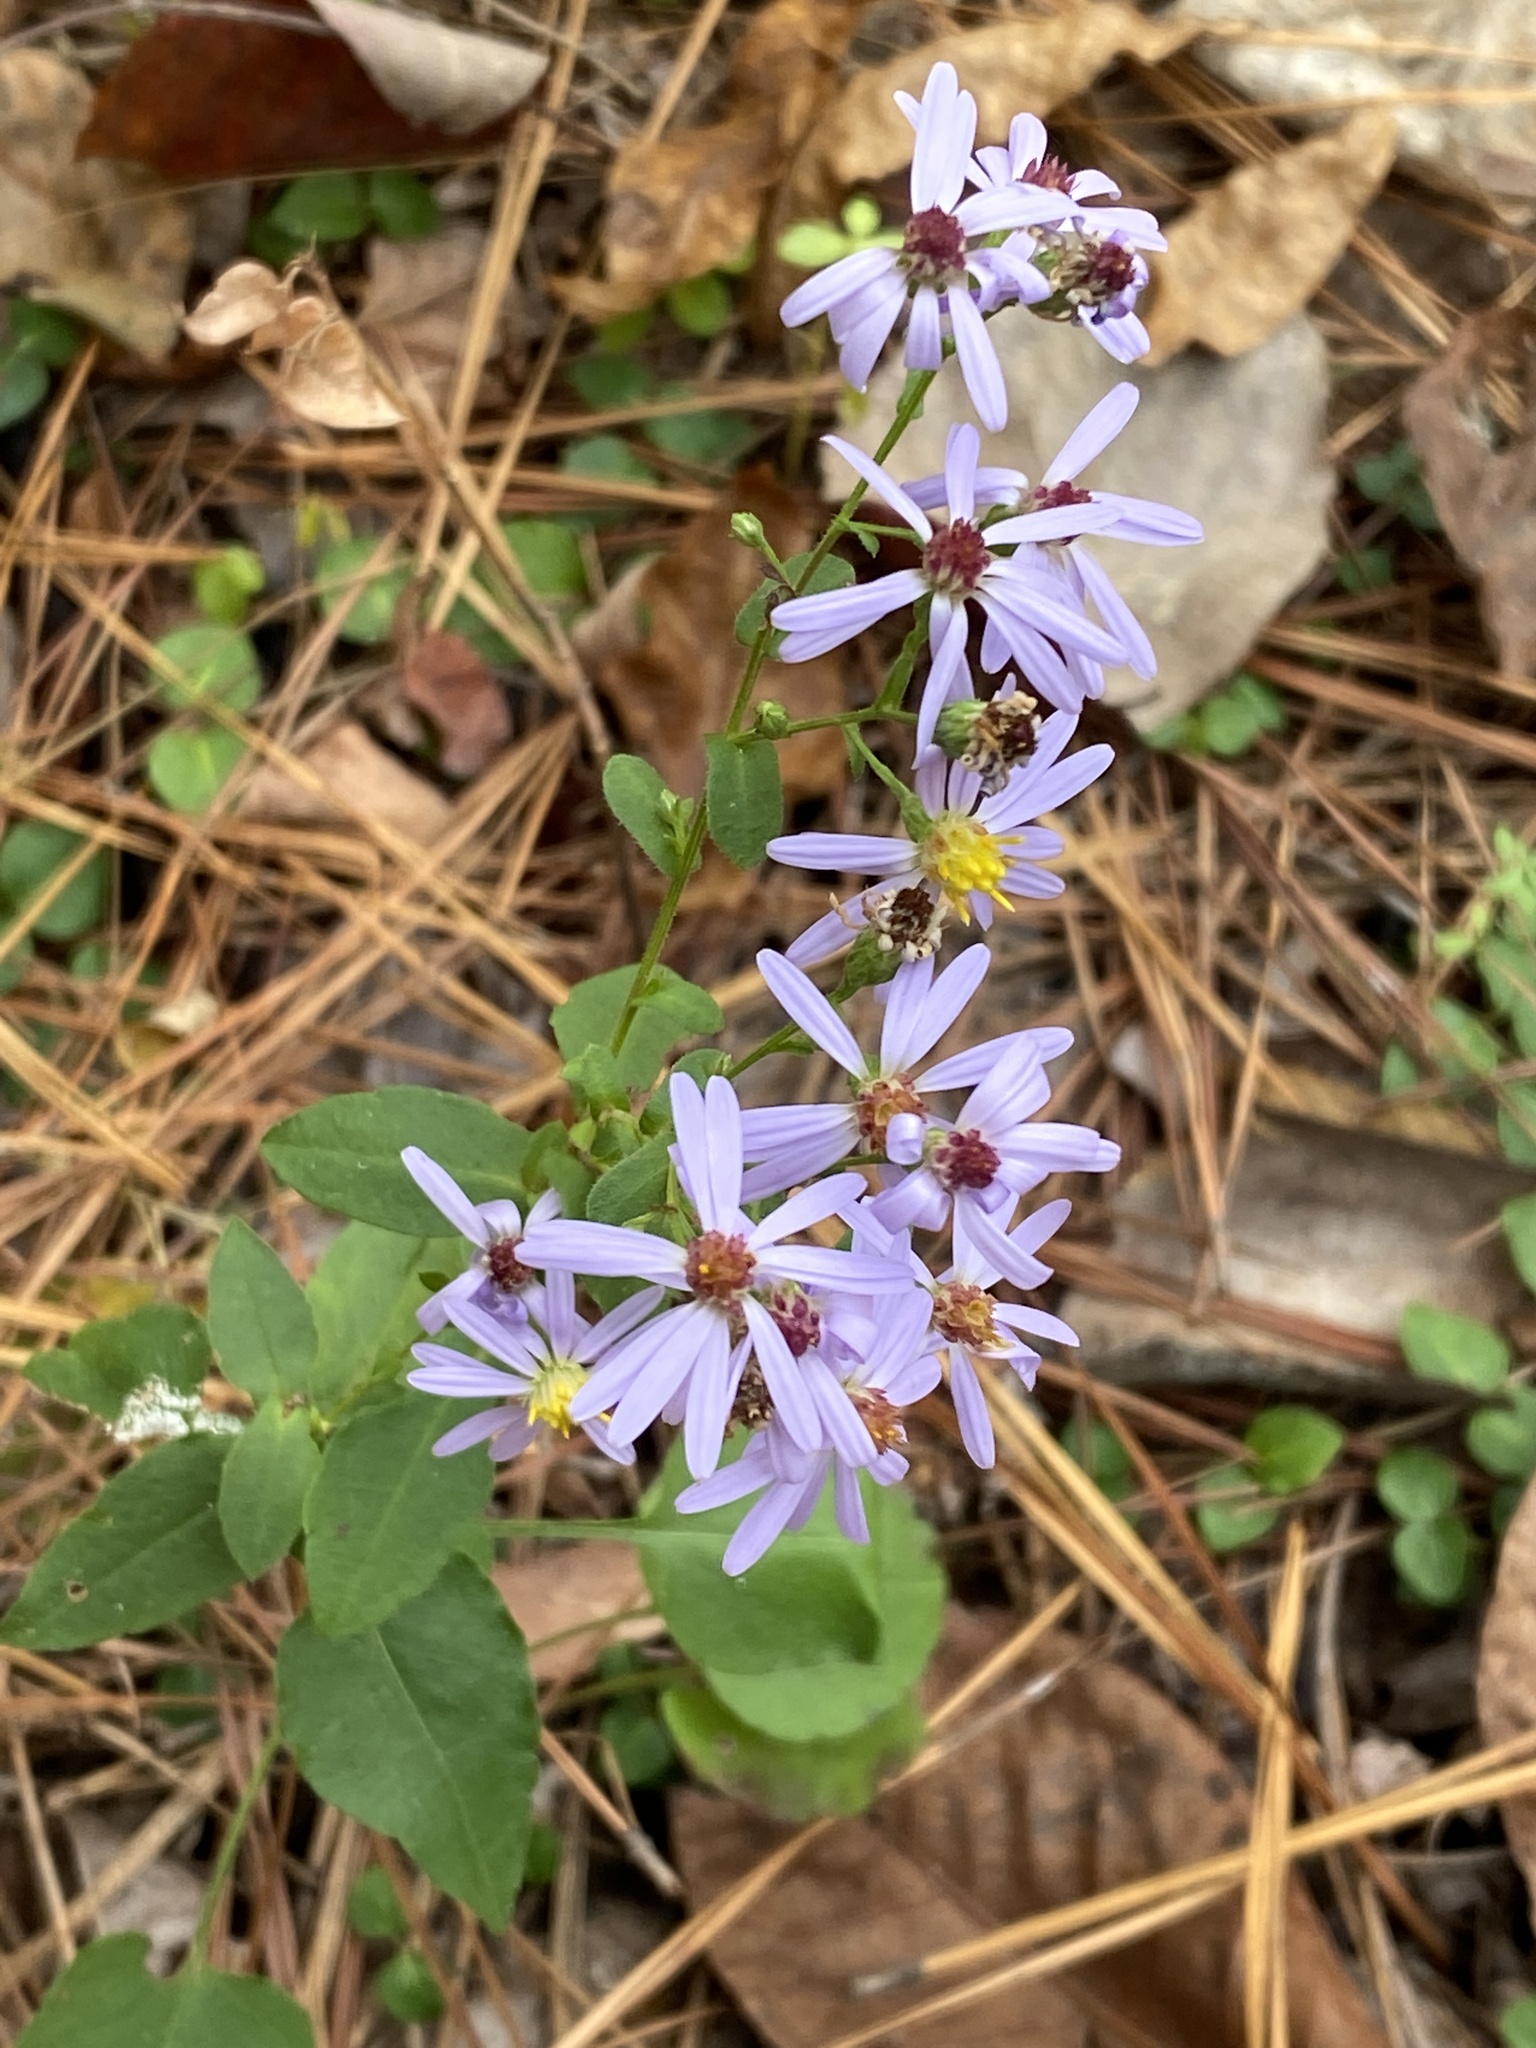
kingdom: Plantae
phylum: Tracheophyta
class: Magnoliopsida
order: Asterales
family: Asteraceae
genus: Symphyotrichum
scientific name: Symphyotrichum undulatum
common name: Clasping heart-leaf aster
